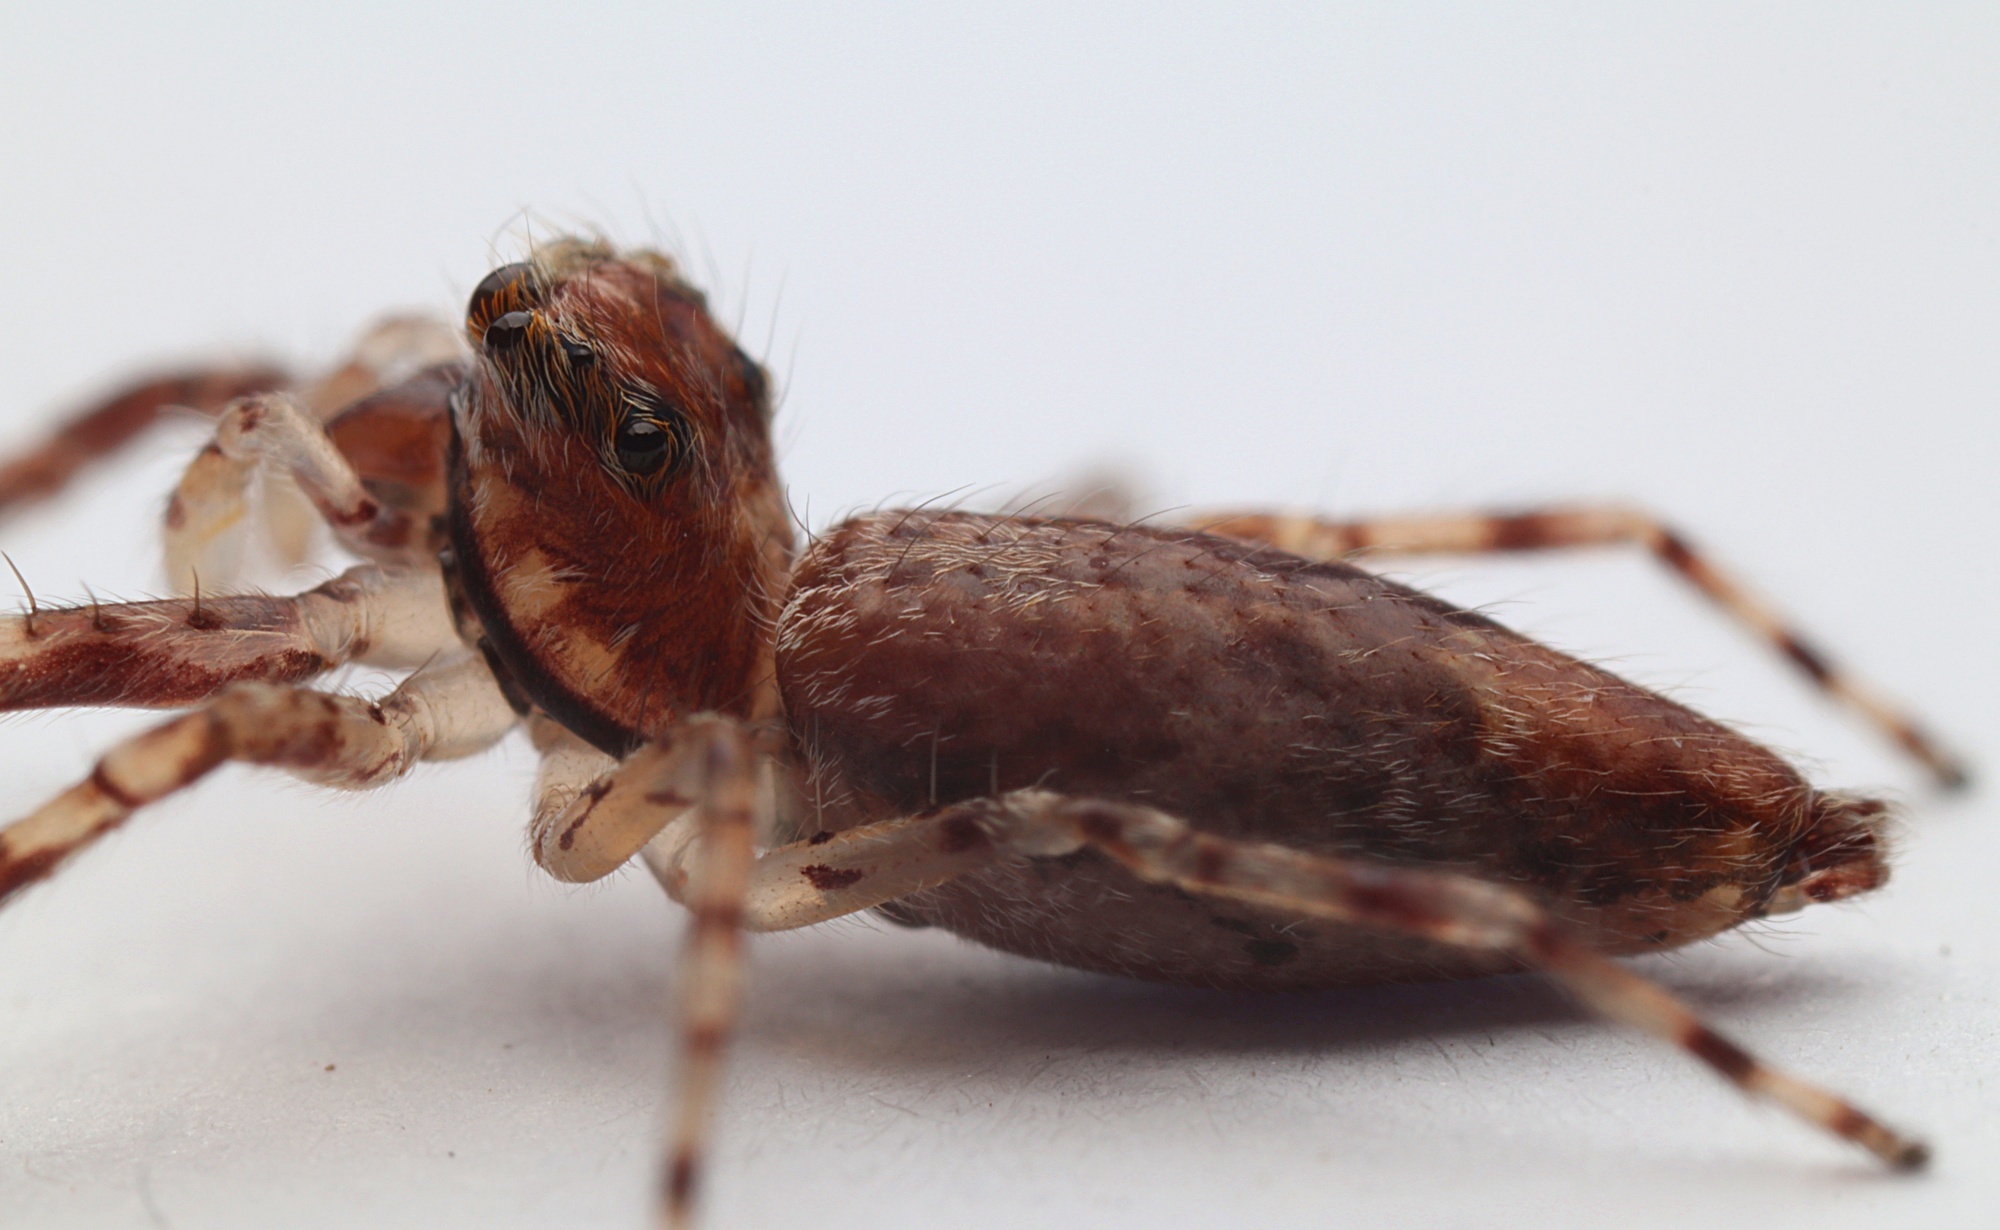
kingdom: Animalia
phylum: Arthropoda
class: Arachnida
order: Araneae
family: Salticidae
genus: Helpis
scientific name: Helpis minitabunda
